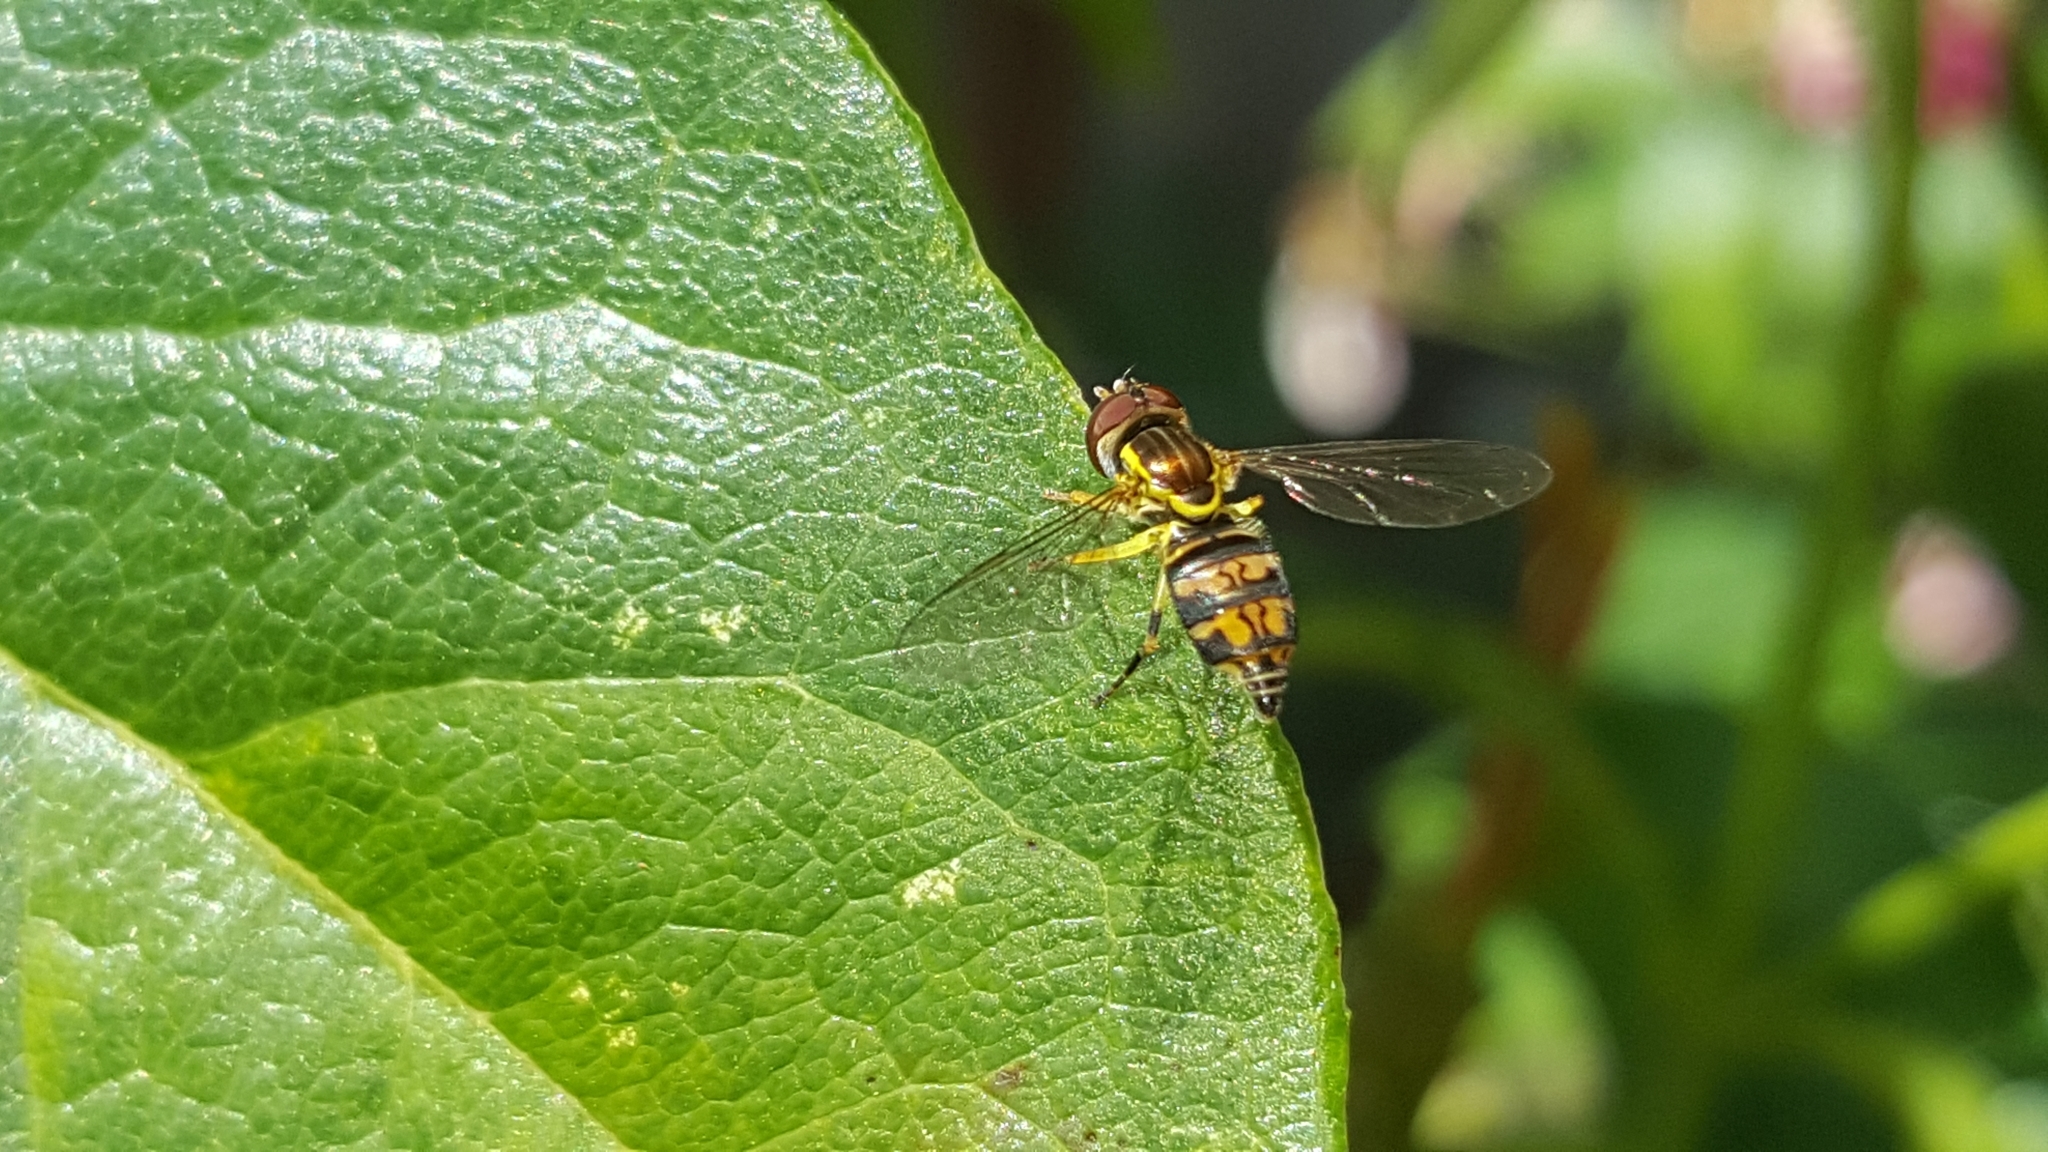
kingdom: Animalia
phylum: Arthropoda
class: Insecta
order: Diptera
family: Syrphidae
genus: Toxomerus
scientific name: Toxomerus occidentalis
